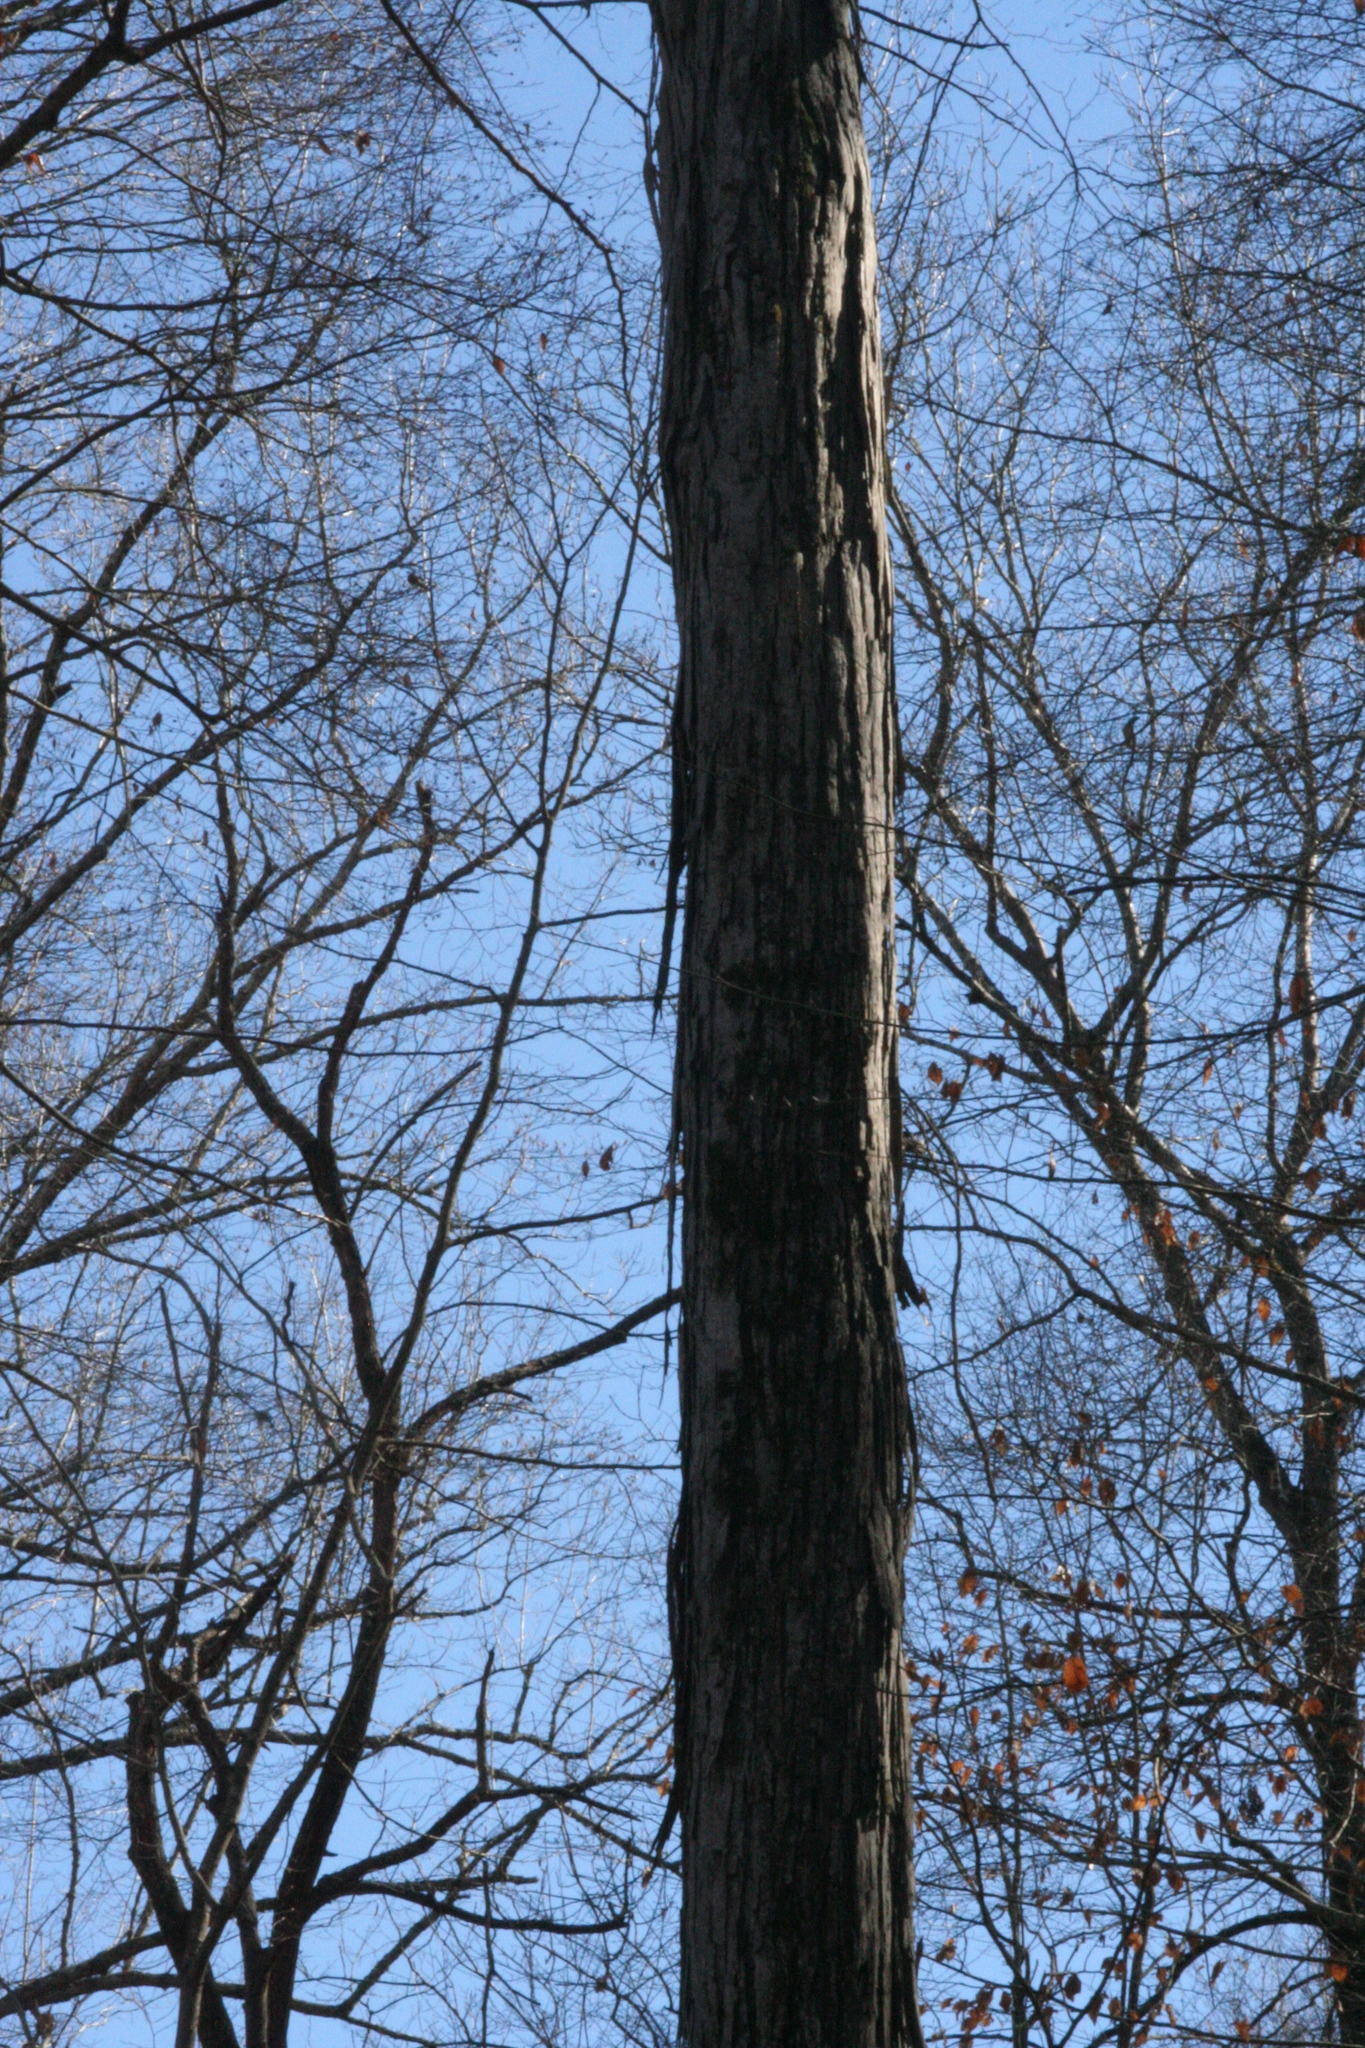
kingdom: Plantae
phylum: Tracheophyta
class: Magnoliopsida
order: Fagales
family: Juglandaceae
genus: Carya
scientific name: Carya ovata
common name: Shagbark hickory
